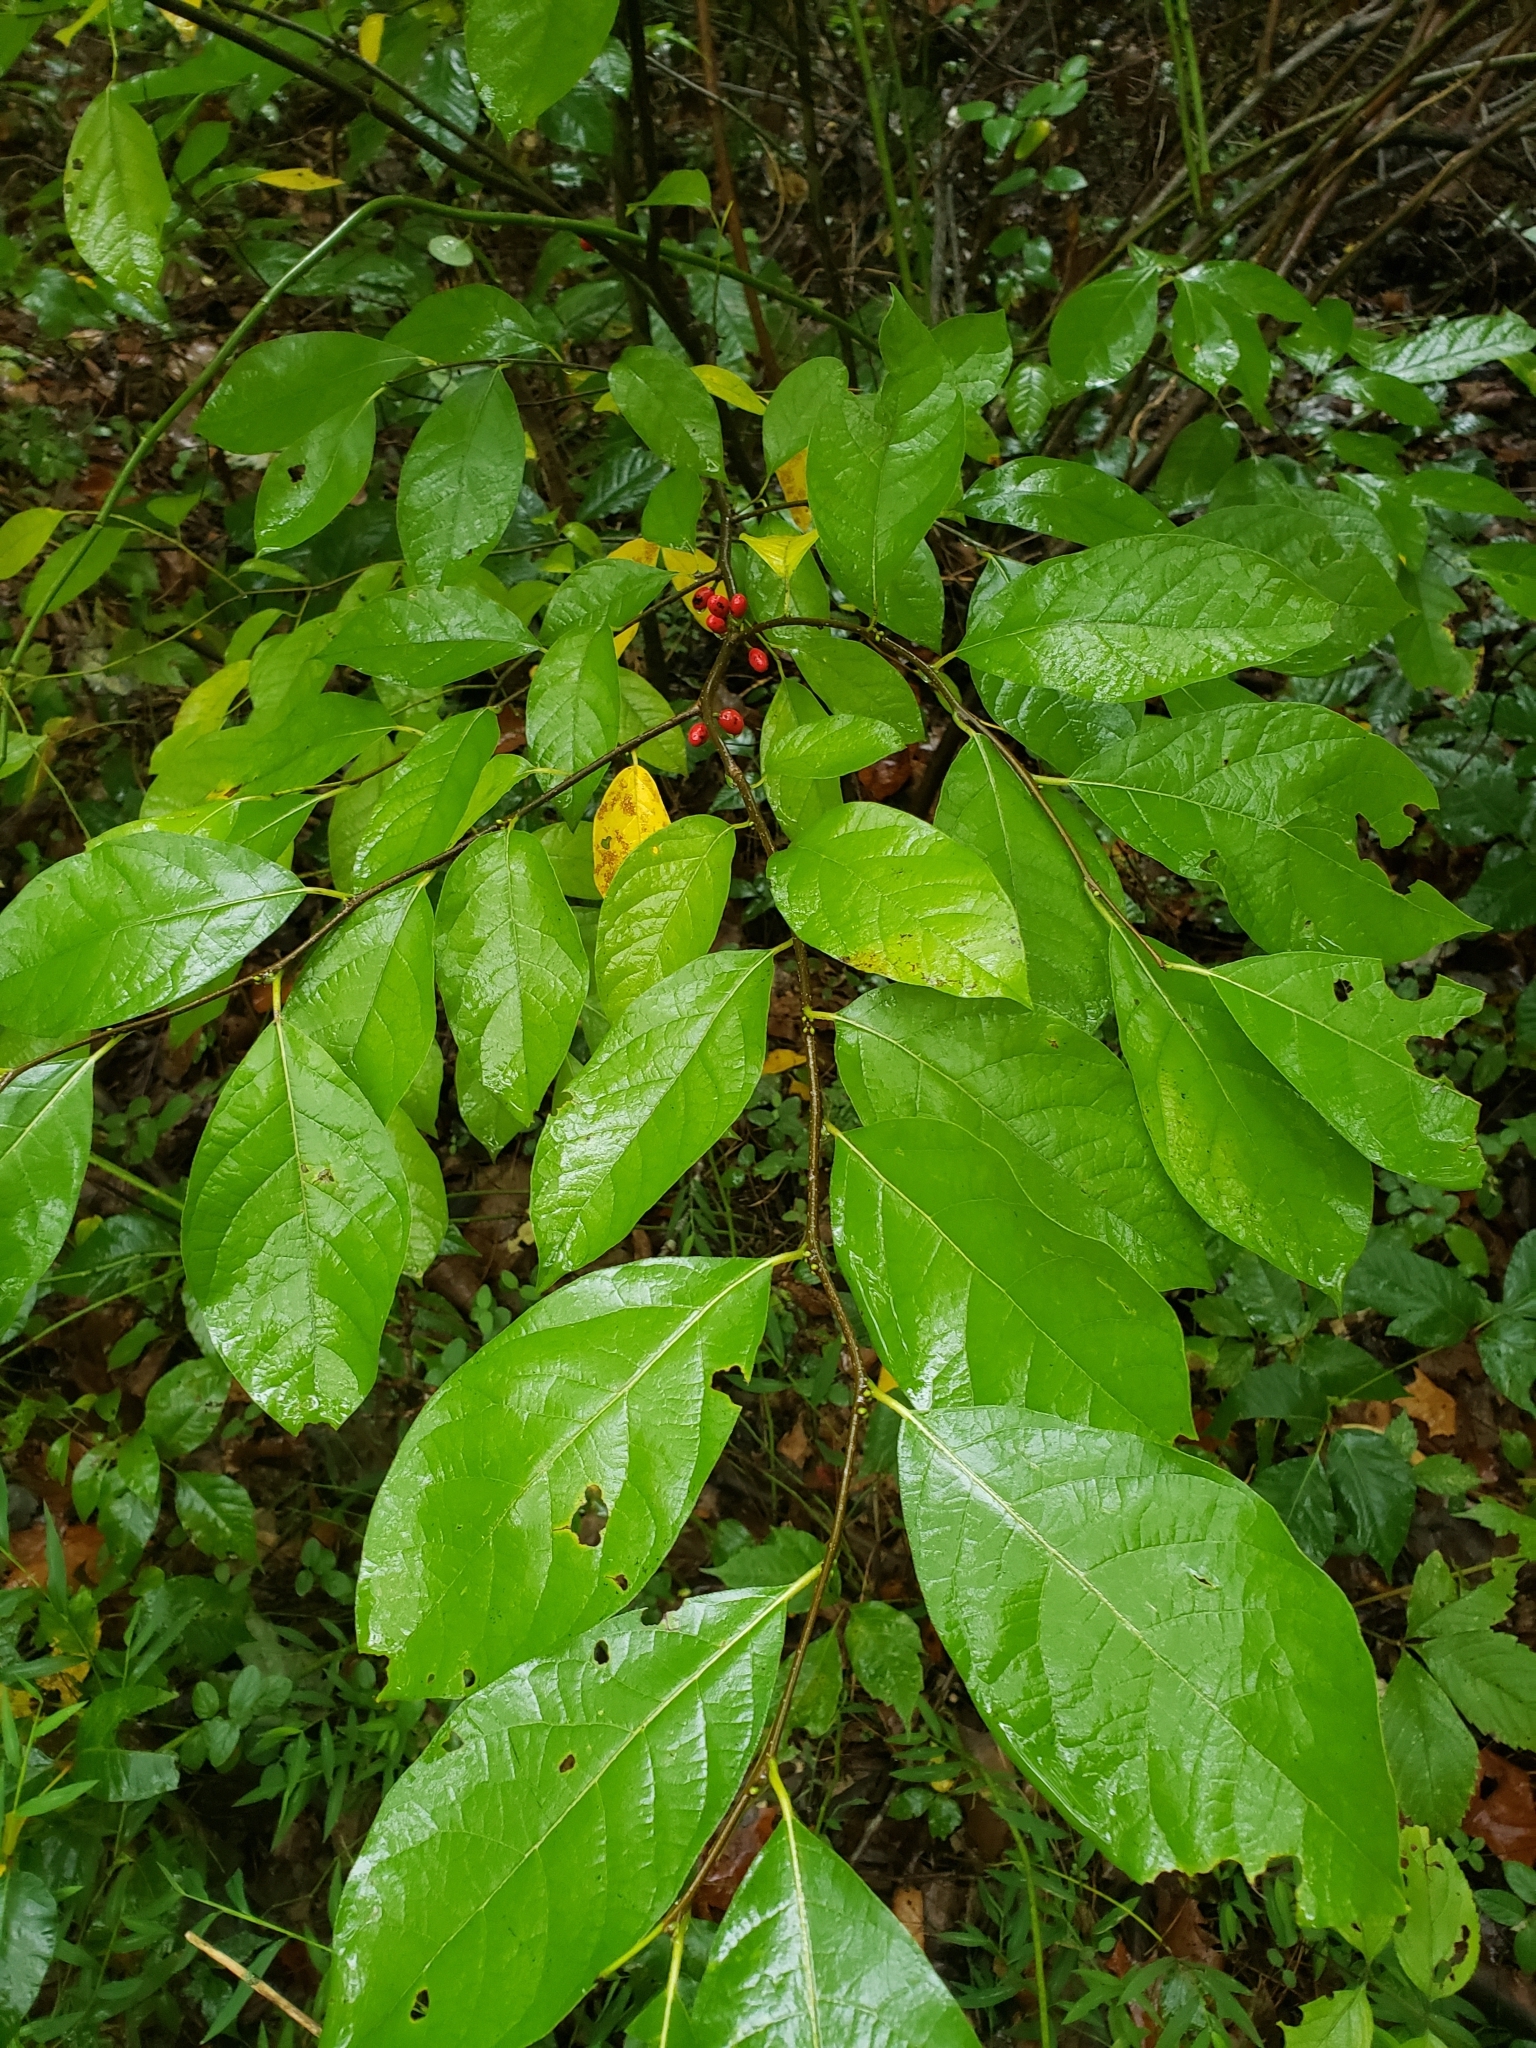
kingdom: Plantae
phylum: Tracheophyta
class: Magnoliopsida
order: Laurales
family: Lauraceae
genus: Lindera
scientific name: Lindera benzoin
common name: Spicebush
